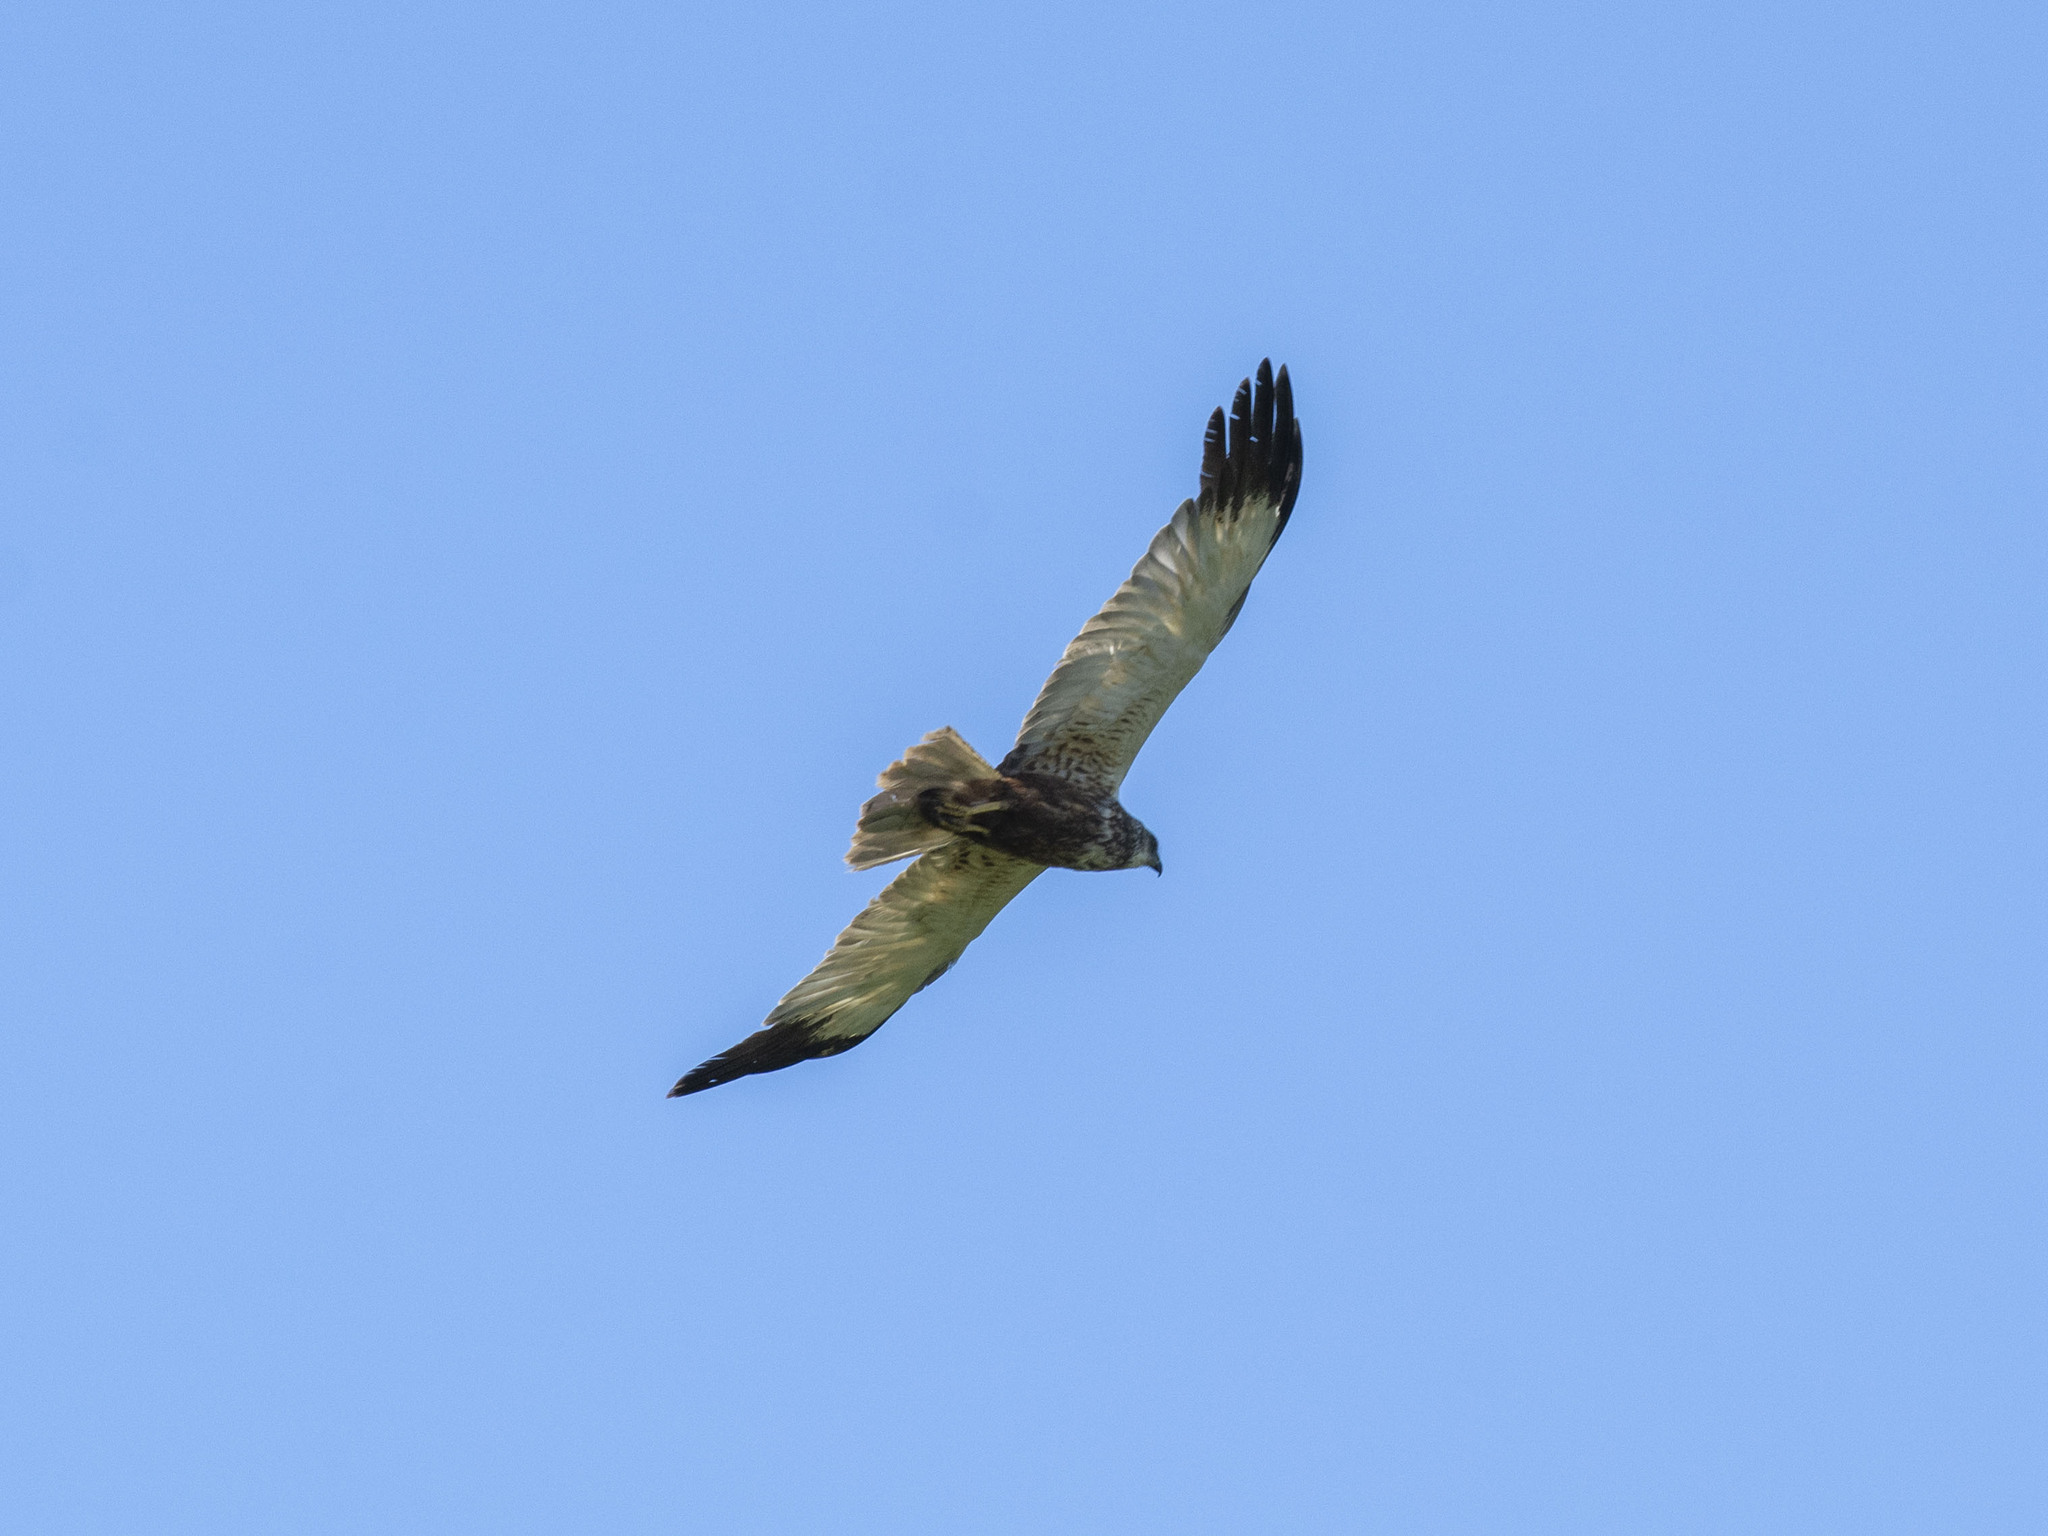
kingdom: Animalia
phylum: Chordata
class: Aves
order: Accipitriformes
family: Accipitridae
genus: Circus
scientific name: Circus aeruginosus
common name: Western marsh harrier
